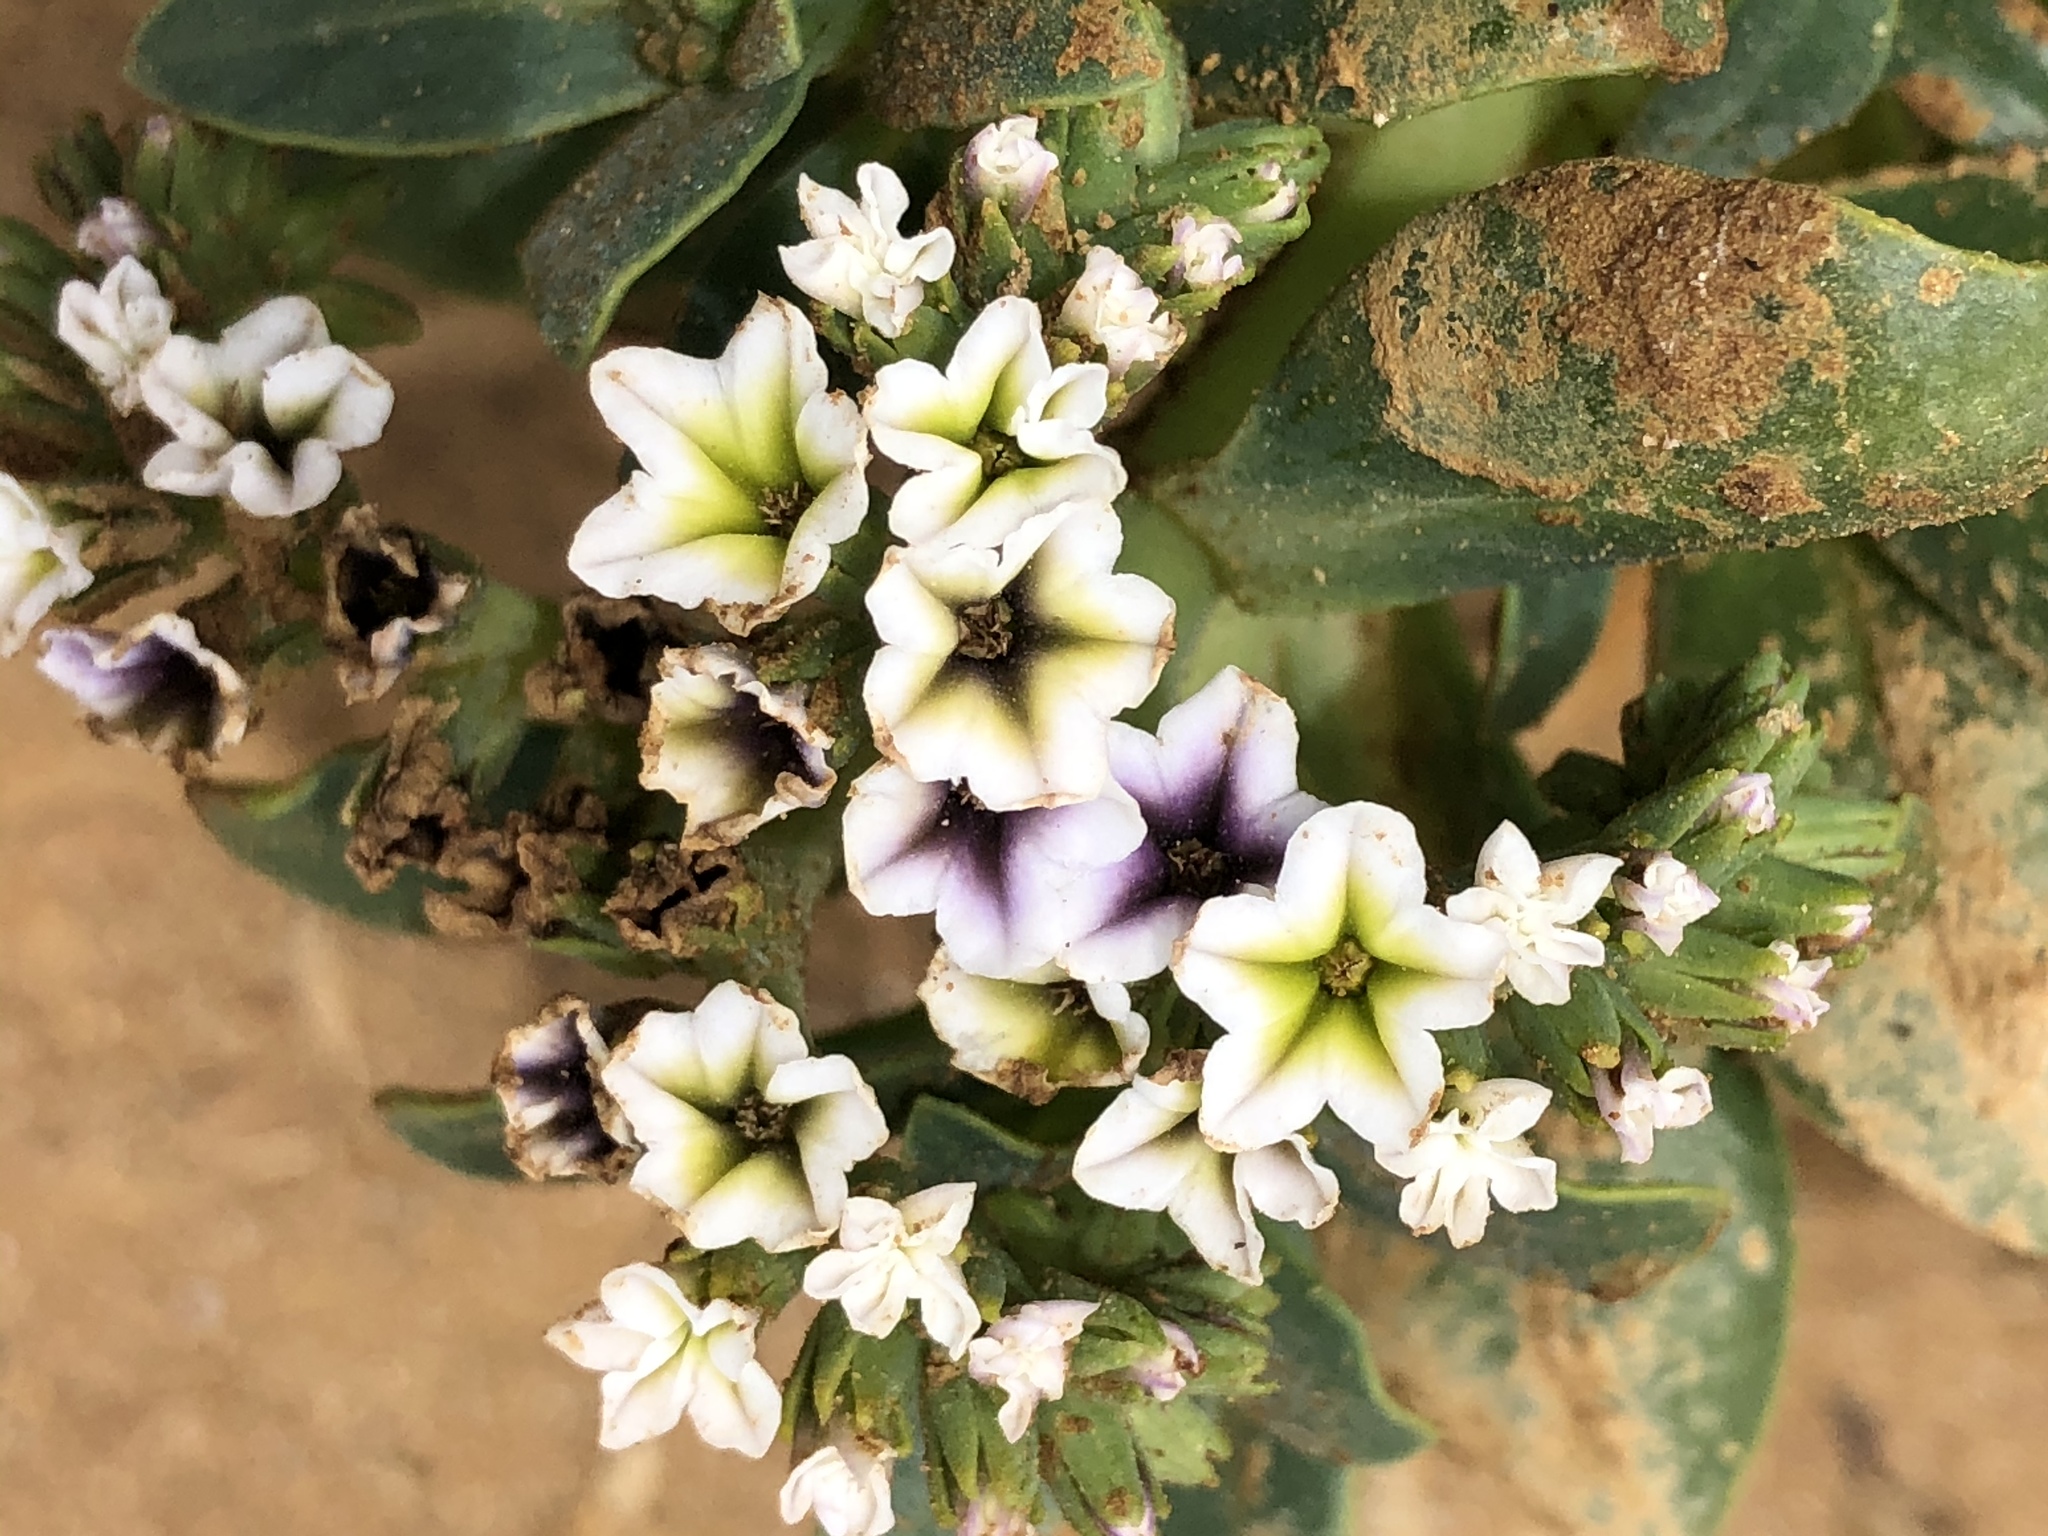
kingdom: Plantae
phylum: Tracheophyta
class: Magnoliopsida
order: Boraginales
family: Heliotropiaceae
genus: Heliotropium
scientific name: Heliotropium curassavicum
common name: Seaside heliotrope
